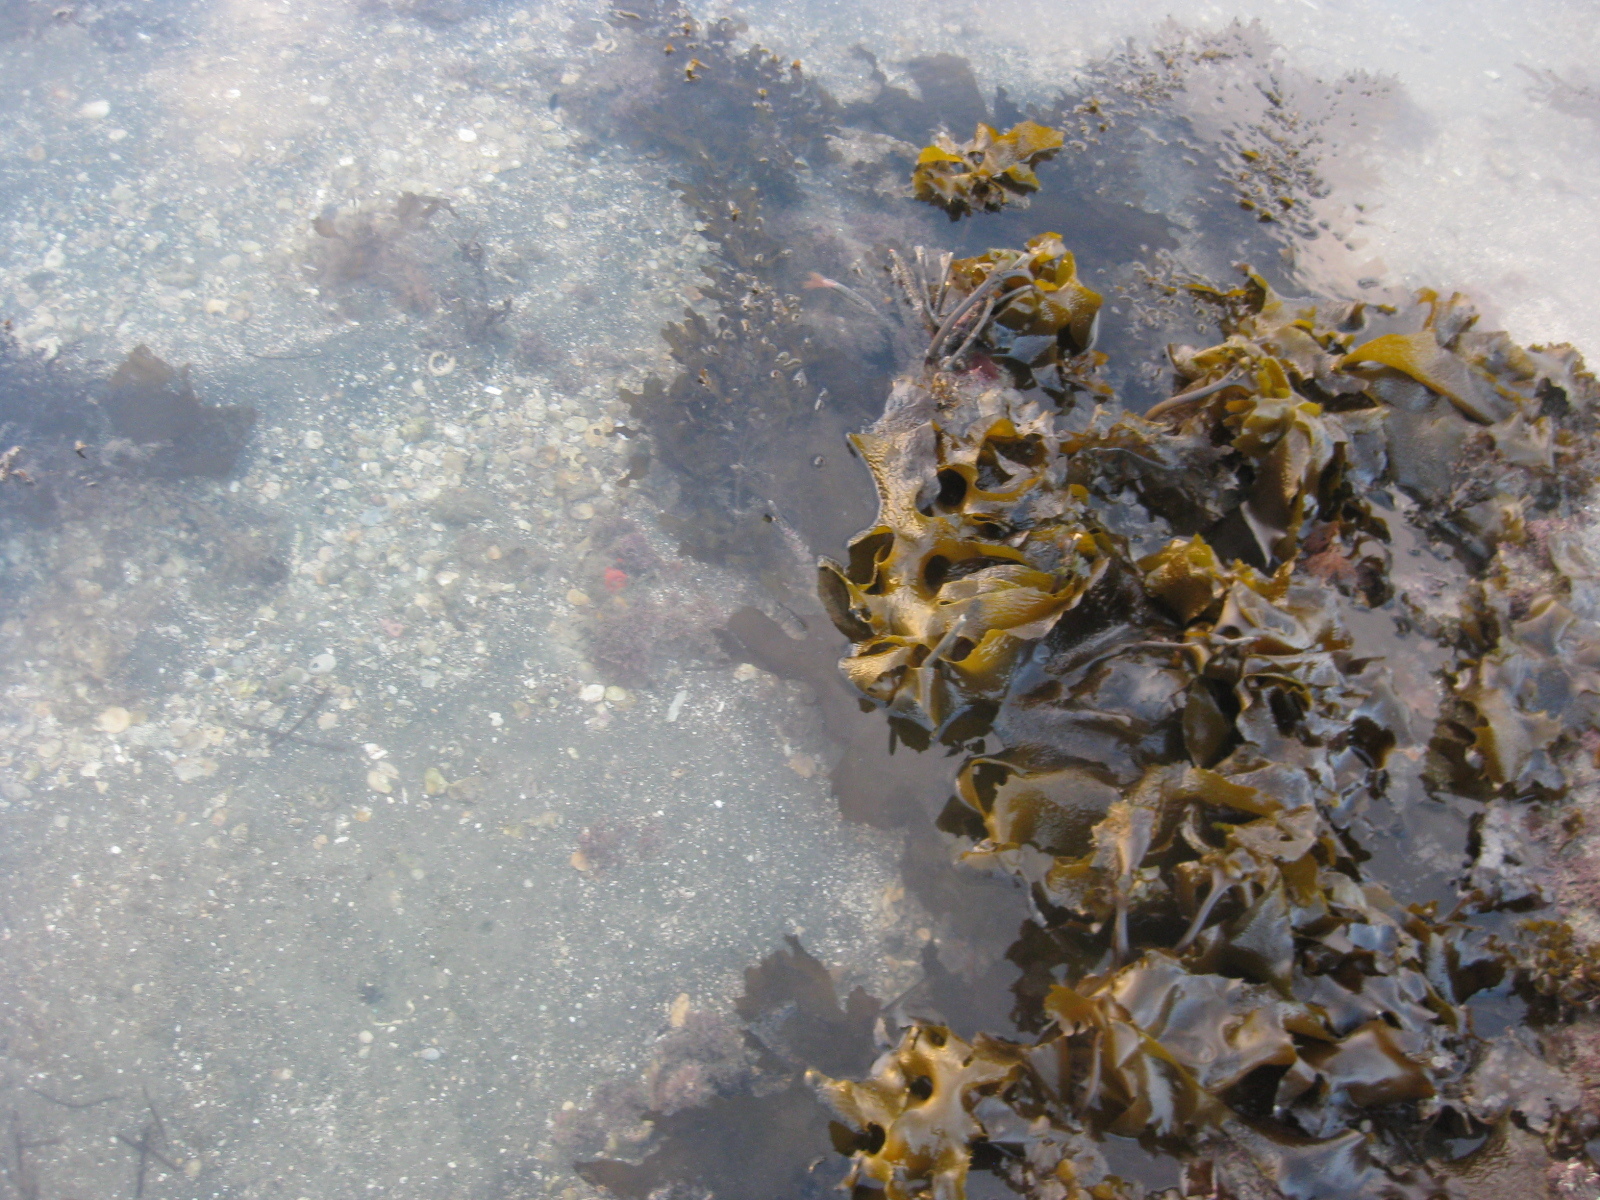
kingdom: Chromista
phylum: Ochrophyta
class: Phaeophyceae
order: Laminariales
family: Lessoniaceae
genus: Ecklonia
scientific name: Ecklonia radiata
